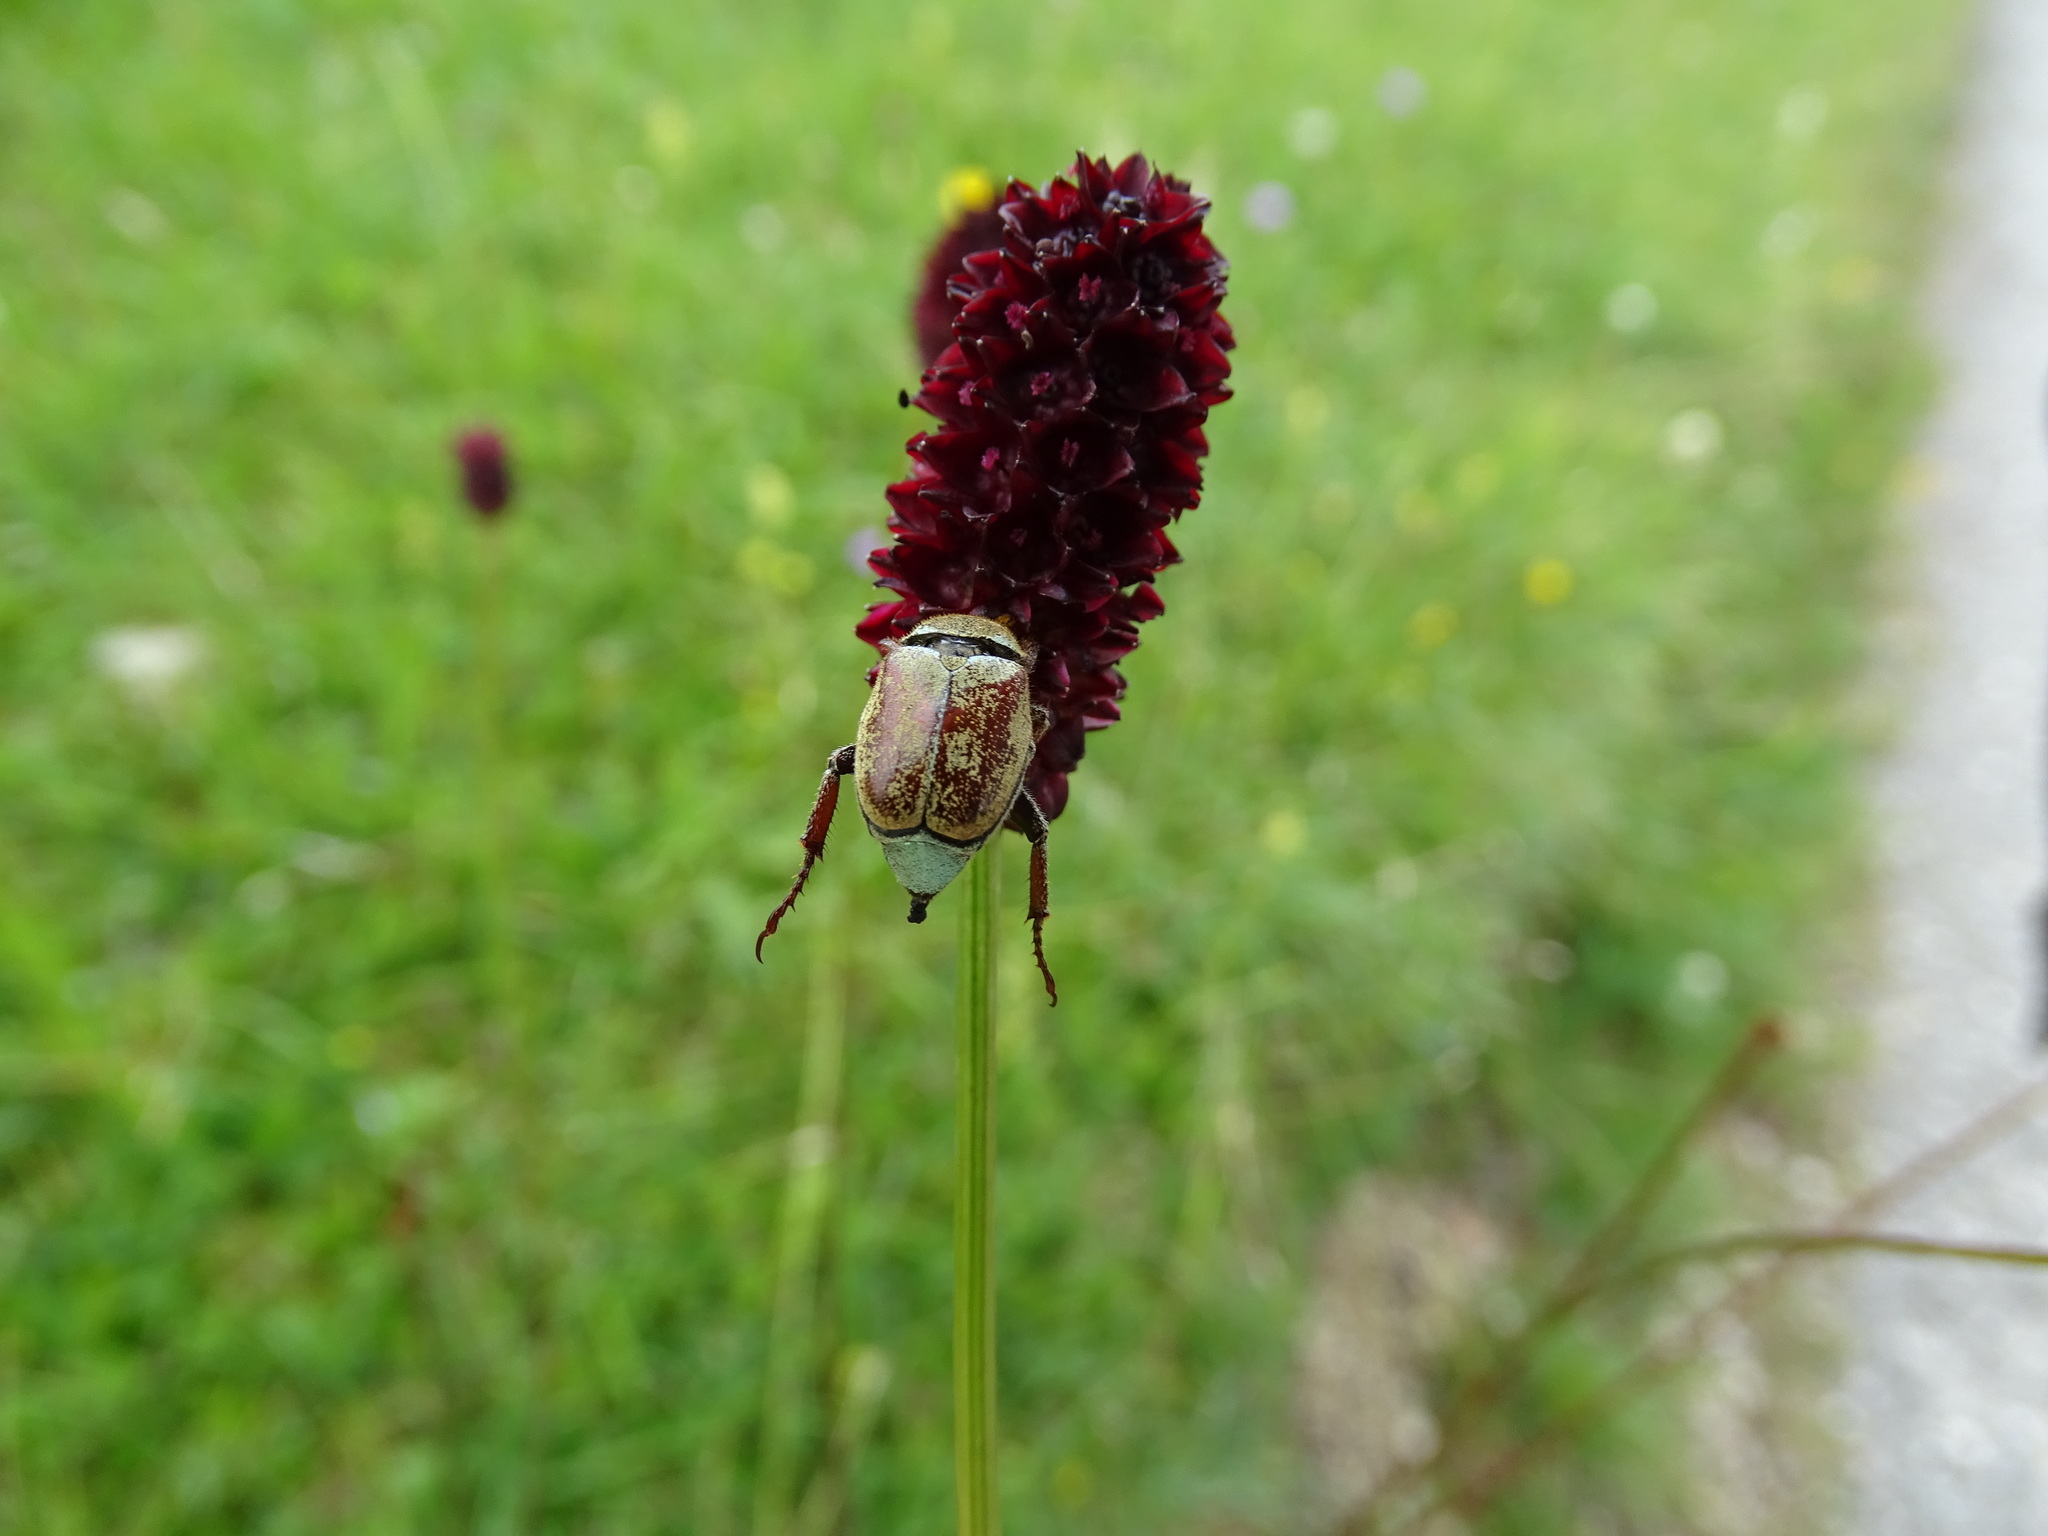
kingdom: Animalia
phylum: Arthropoda
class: Insecta
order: Coleoptera
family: Scarabaeidae
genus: Hoplia
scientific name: Hoplia argentea
